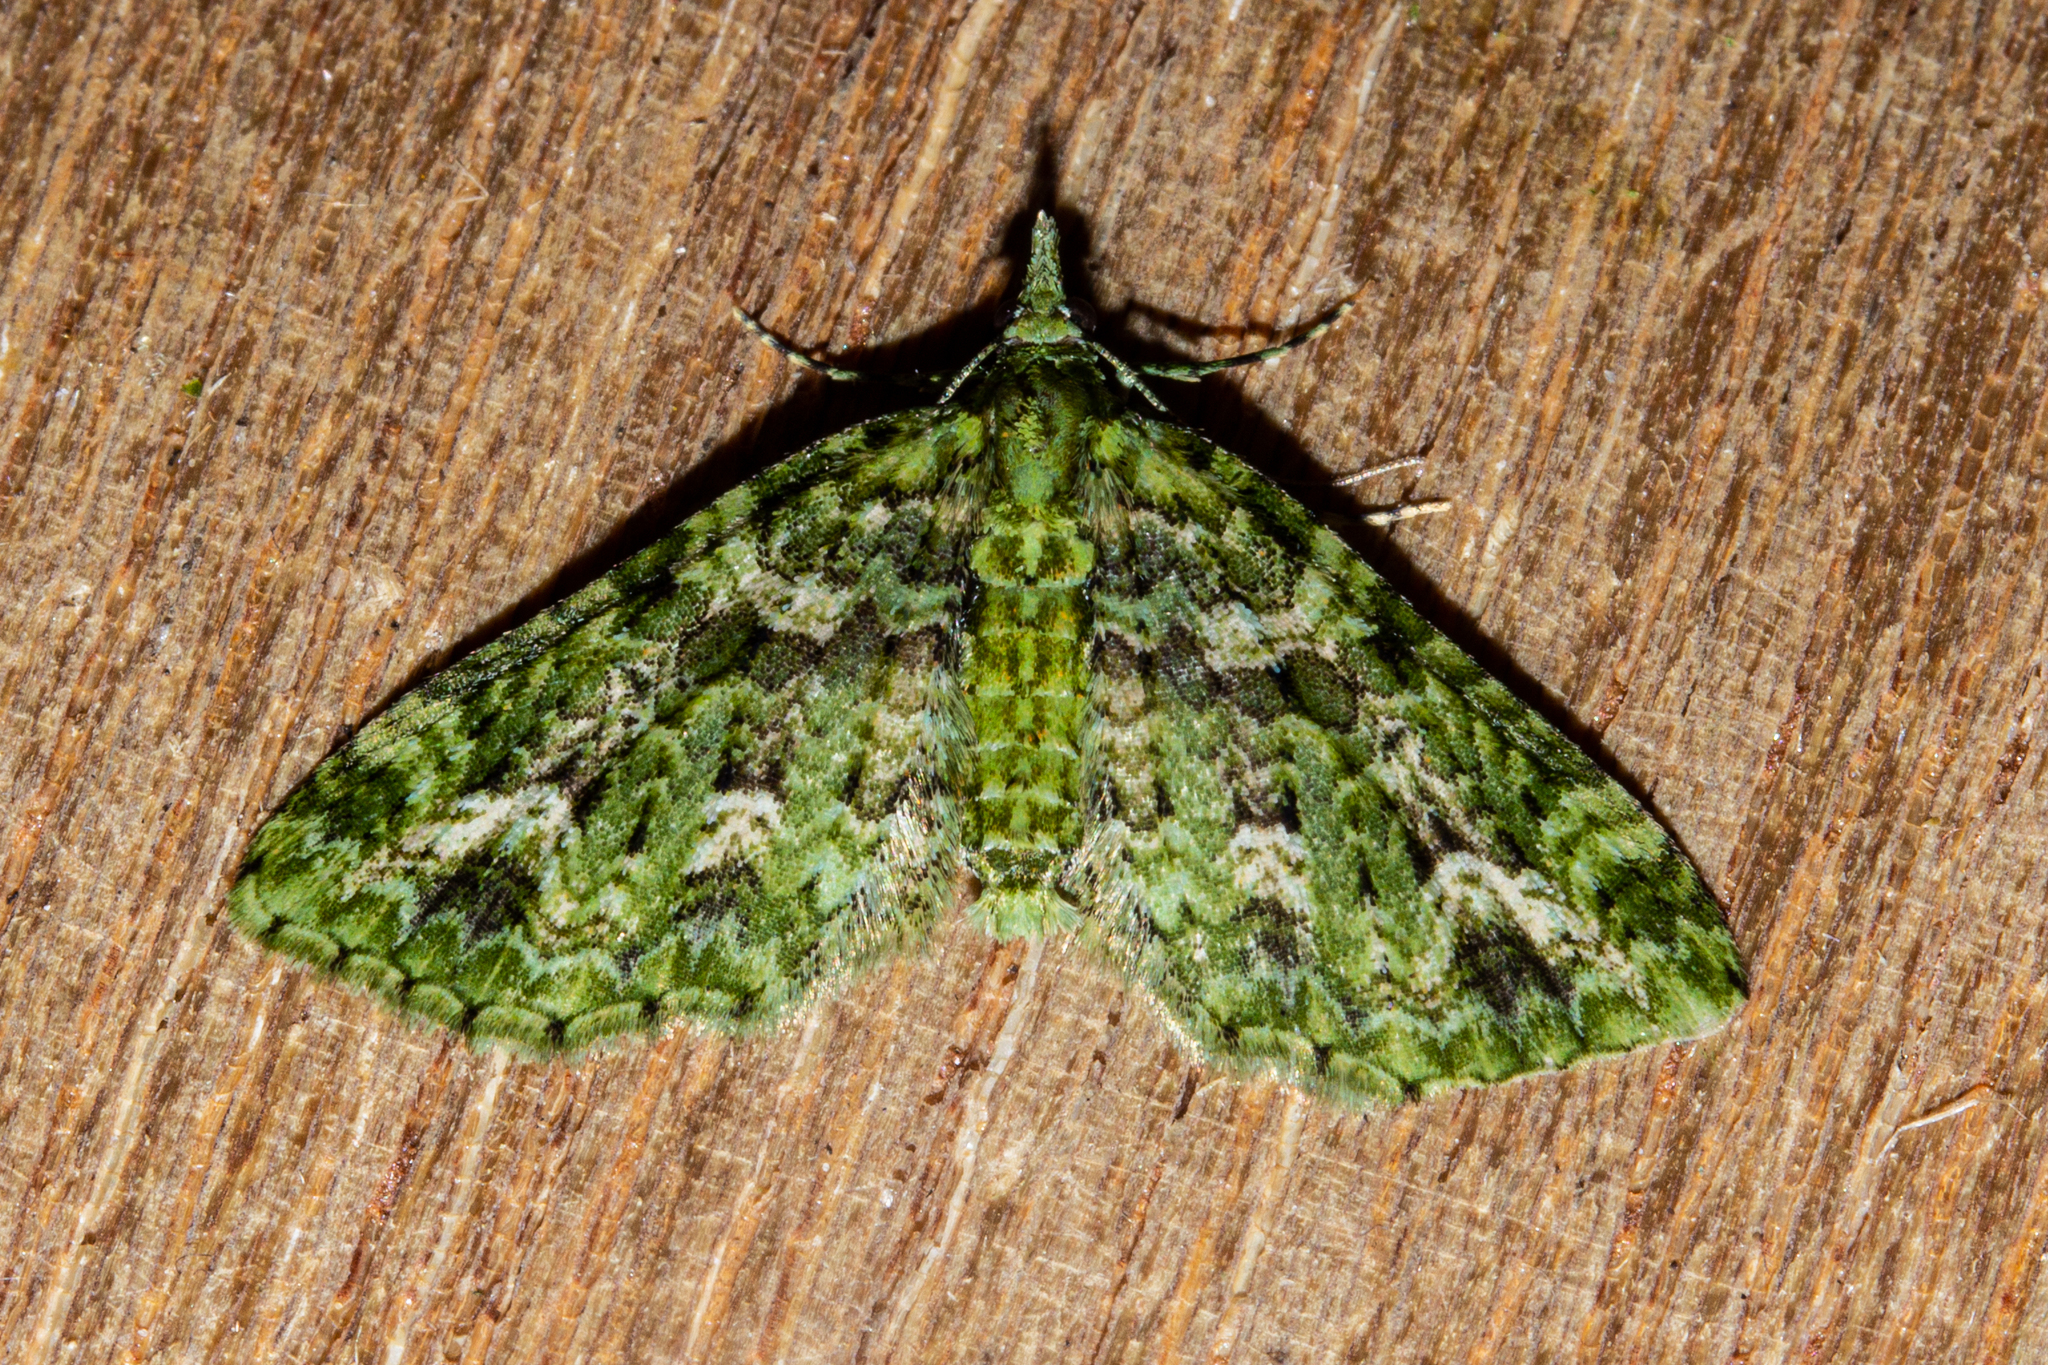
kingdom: Animalia
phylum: Arthropoda
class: Insecta
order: Lepidoptera
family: Geometridae
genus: Pasiphila
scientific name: Pasiphila muscosata
